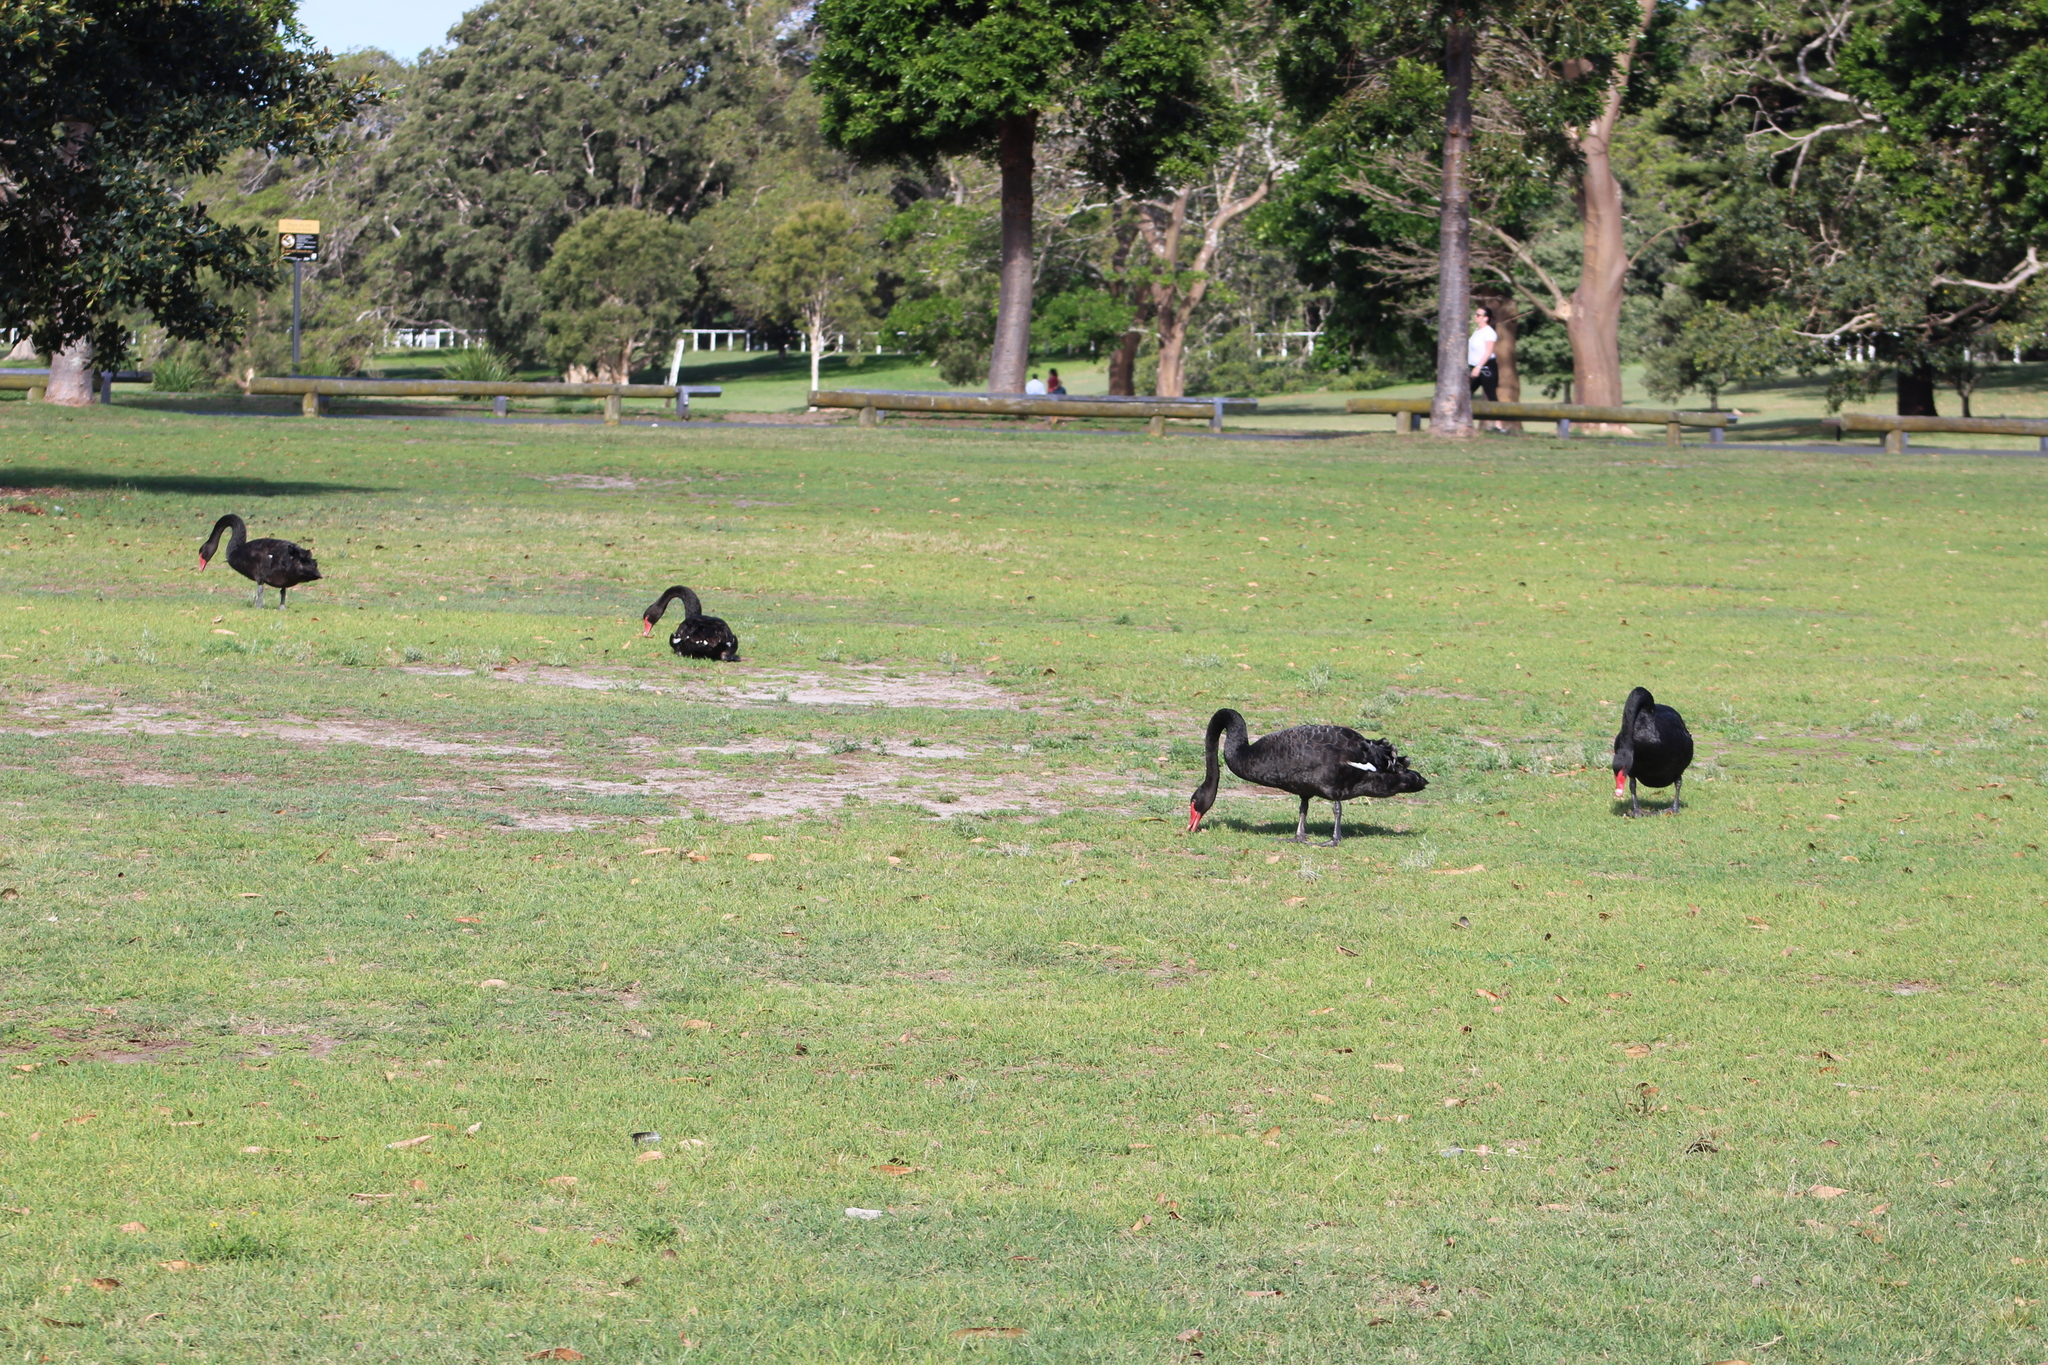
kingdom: Animalia
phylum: Chordata
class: Aves
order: Anseriformes
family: Anatidae
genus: Cygnus
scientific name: Cygnus atratus
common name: Black swan
